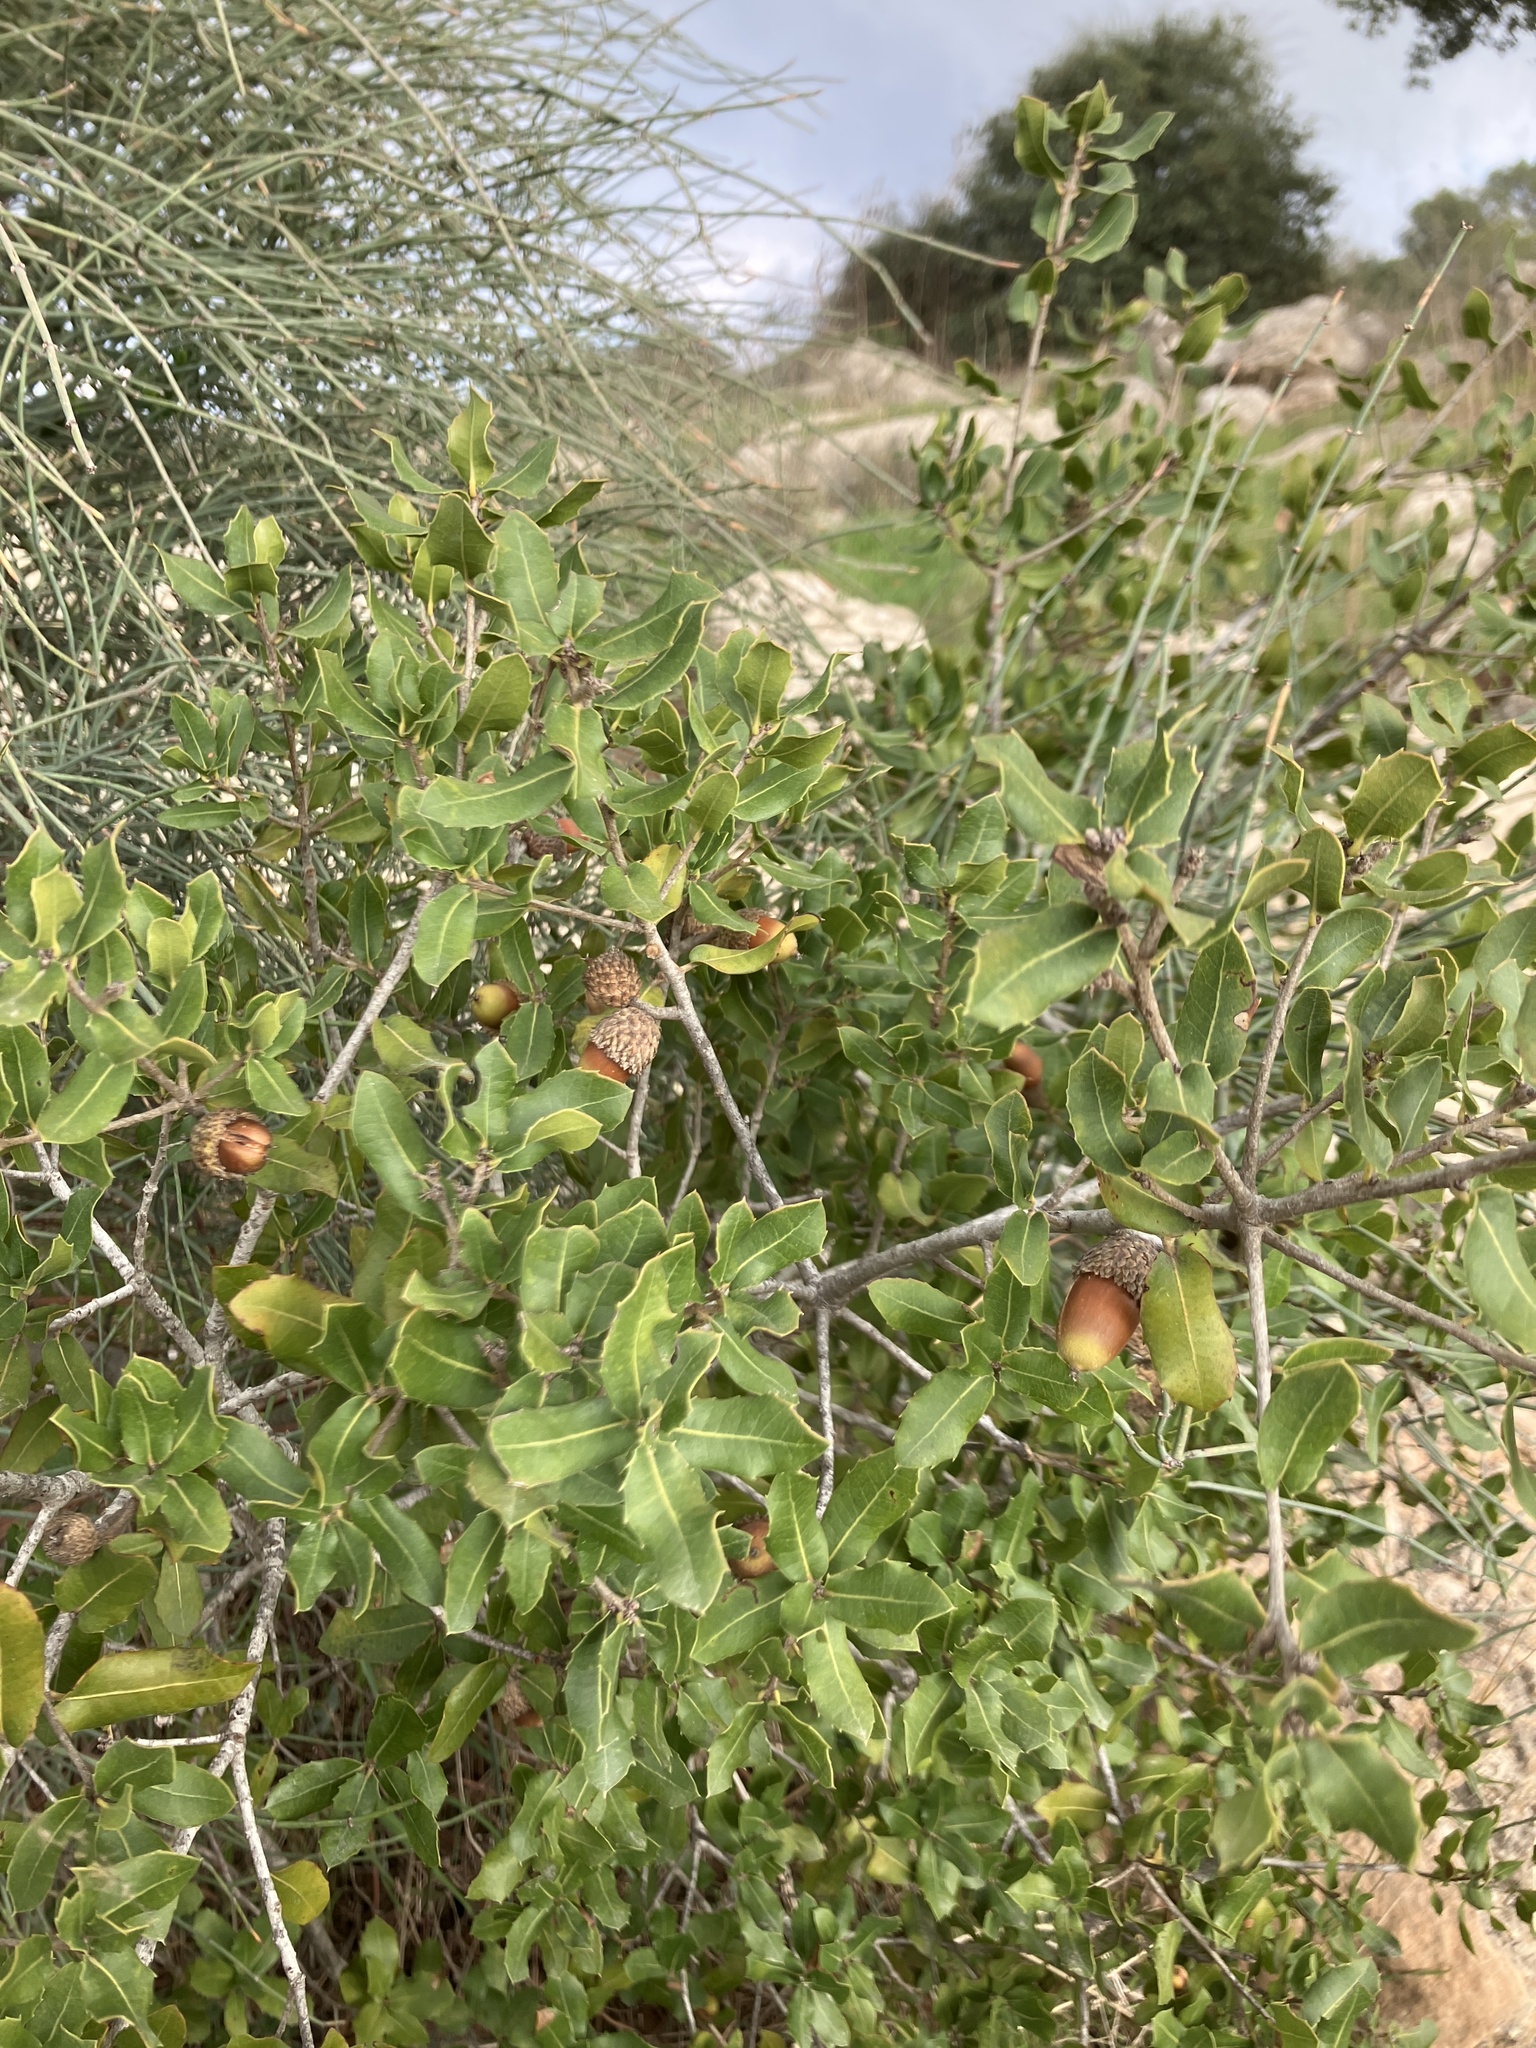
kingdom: Plantae
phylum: Tracheophyta
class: Magnoliopsida
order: Fagales
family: Fagaceae
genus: Quercus
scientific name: Quercus coccifera
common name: Kermes oak
